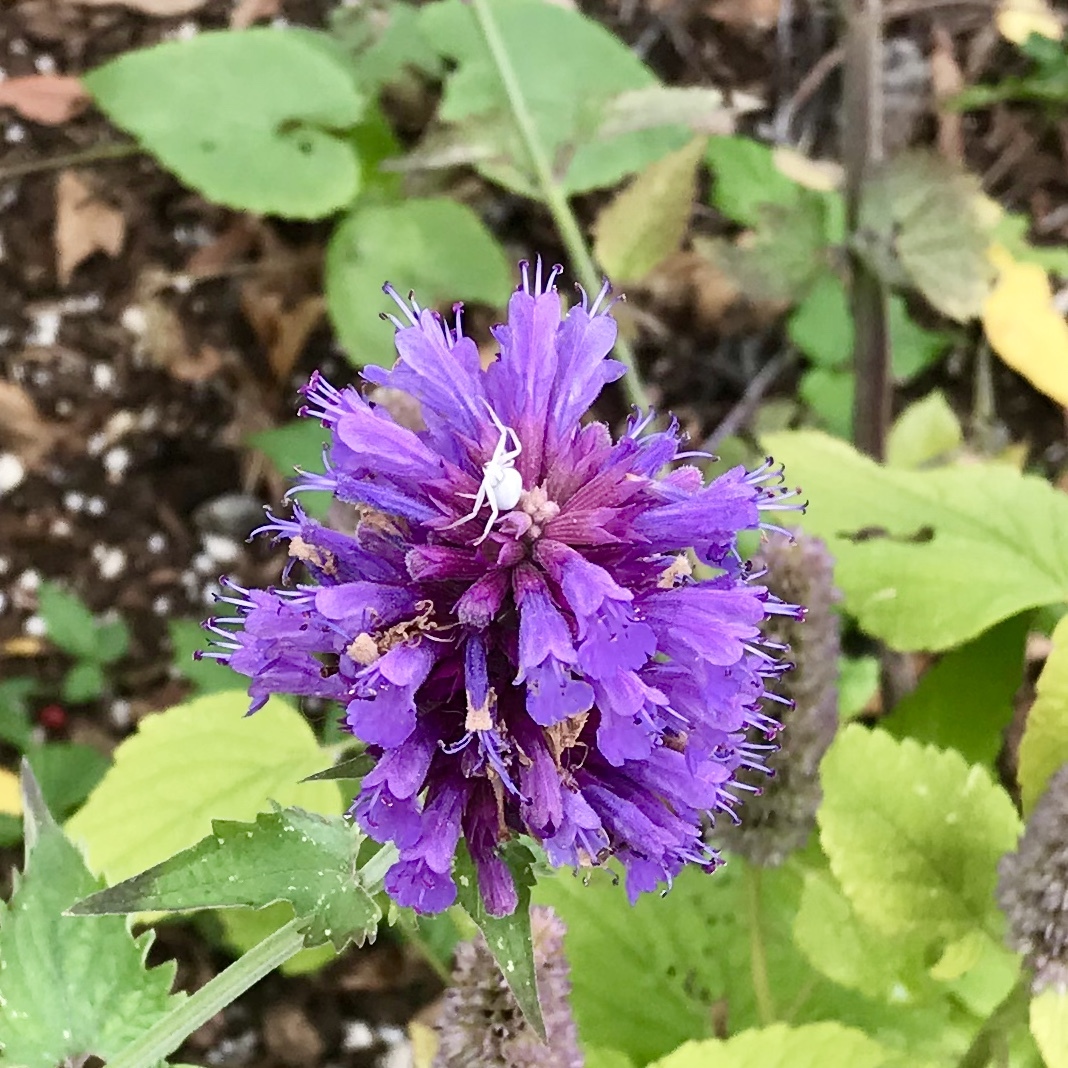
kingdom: Animalia
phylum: Arthropoda
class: Arachnida
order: Araneae
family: Thomisidae
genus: Misumena
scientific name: Misumena vatia
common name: Goldenrod crab spider
